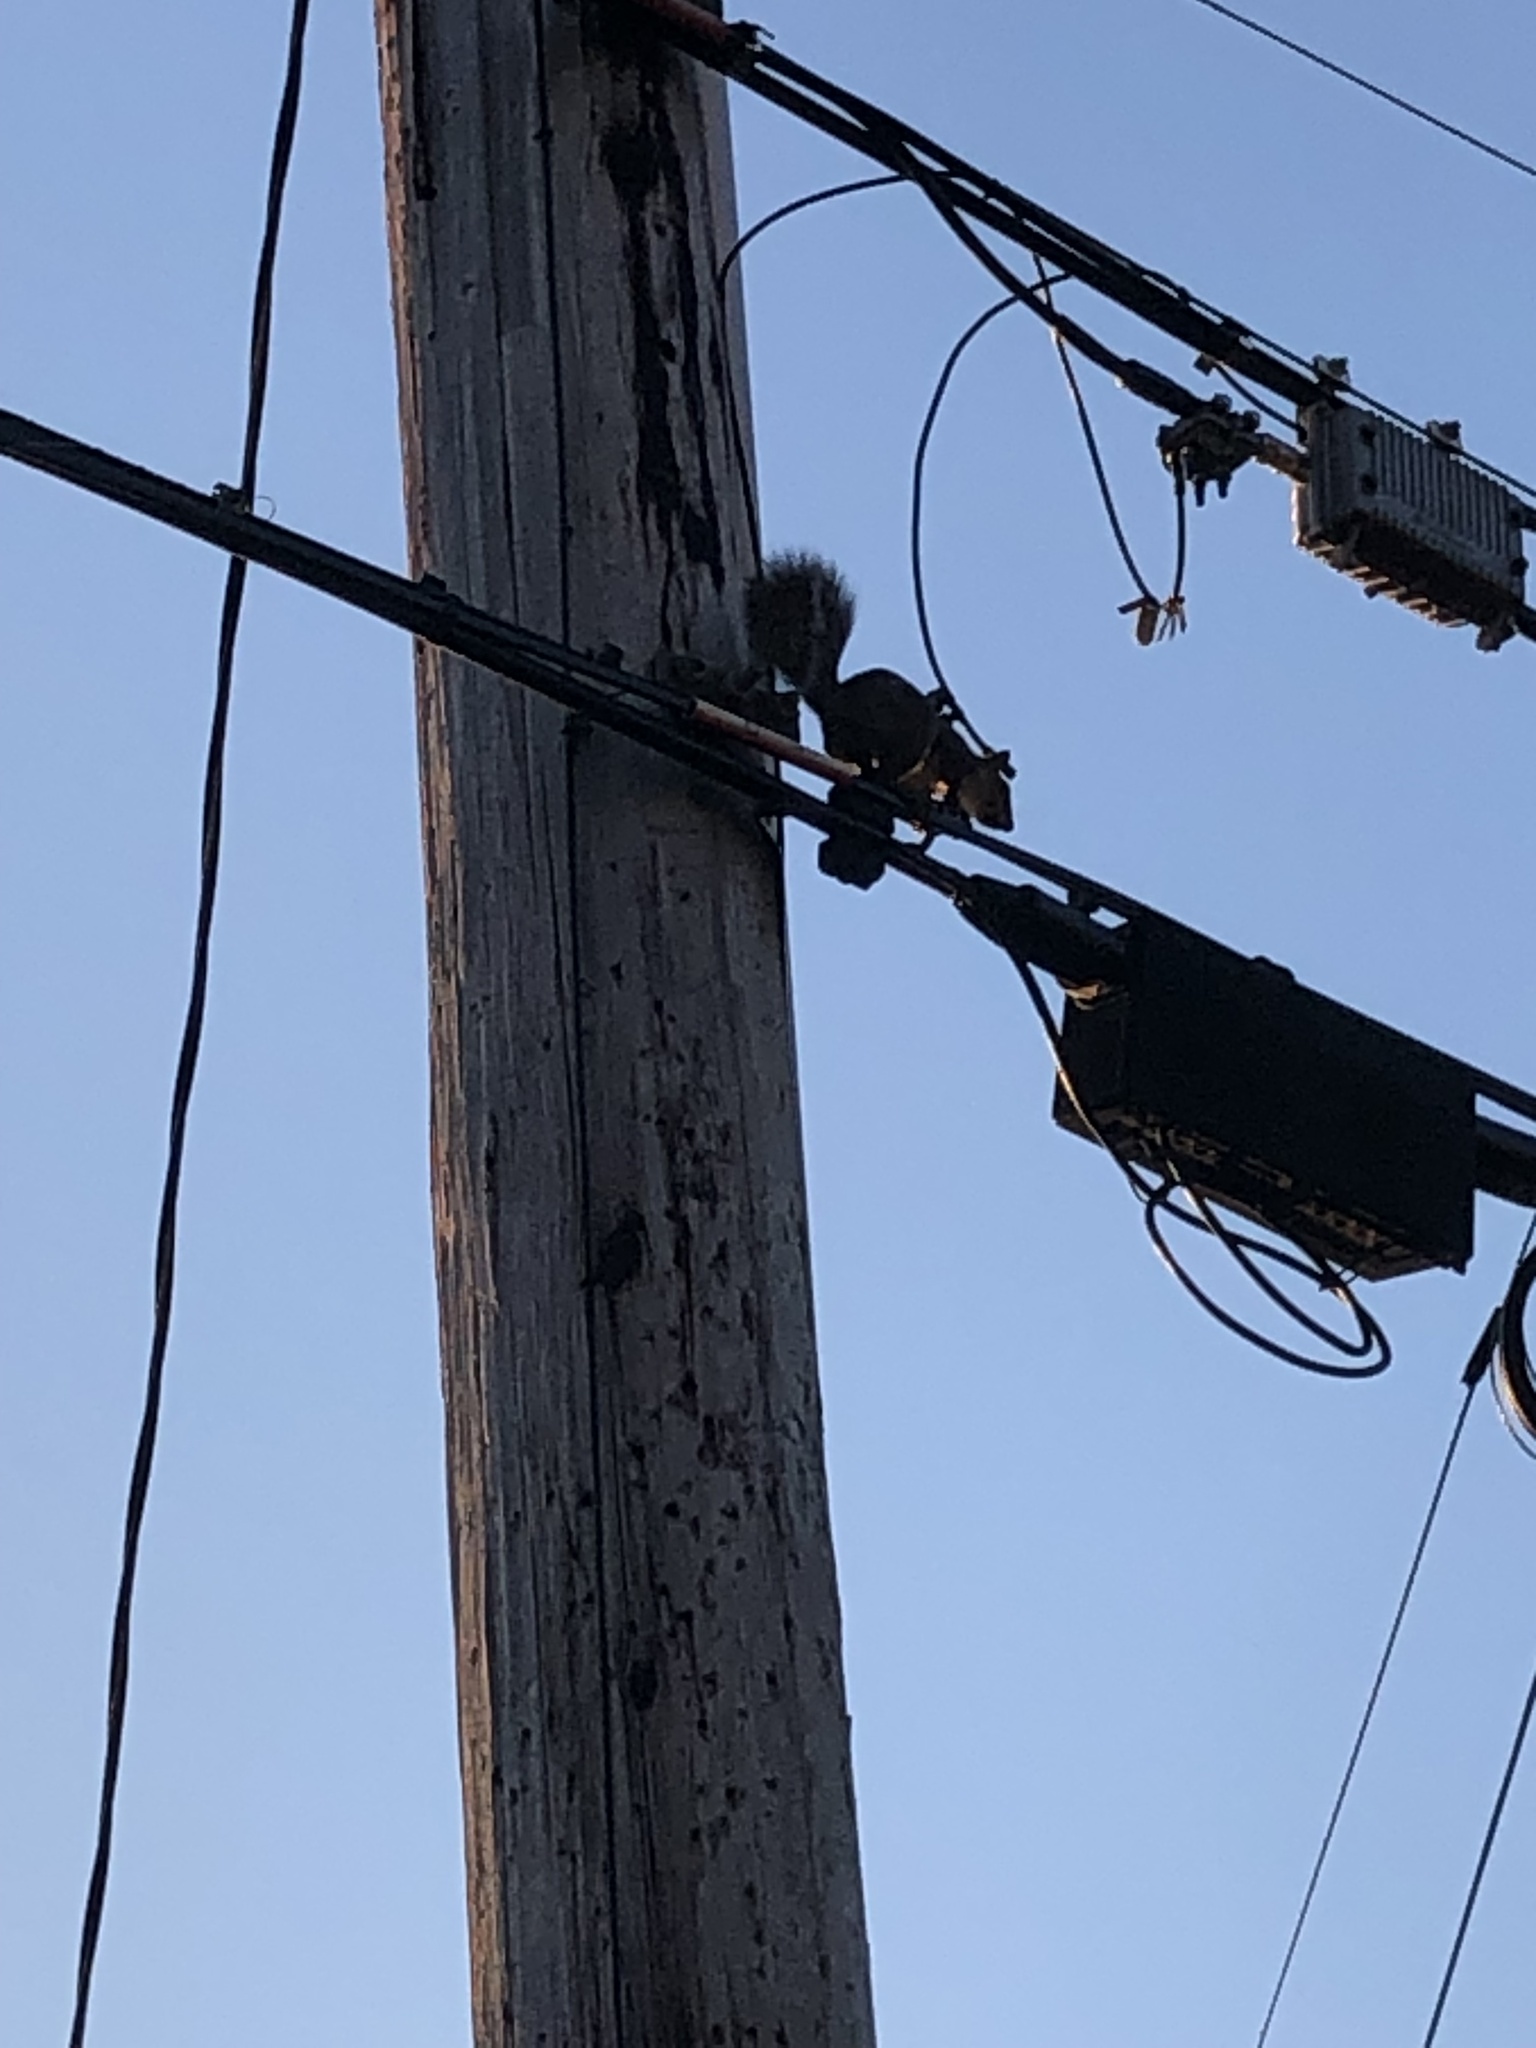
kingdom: Animalia
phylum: Chordata
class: Mammalia
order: Rodentia
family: Sciuridae
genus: Sciurus
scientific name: Sciurus carolinensis
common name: Eastern gray squirrel
